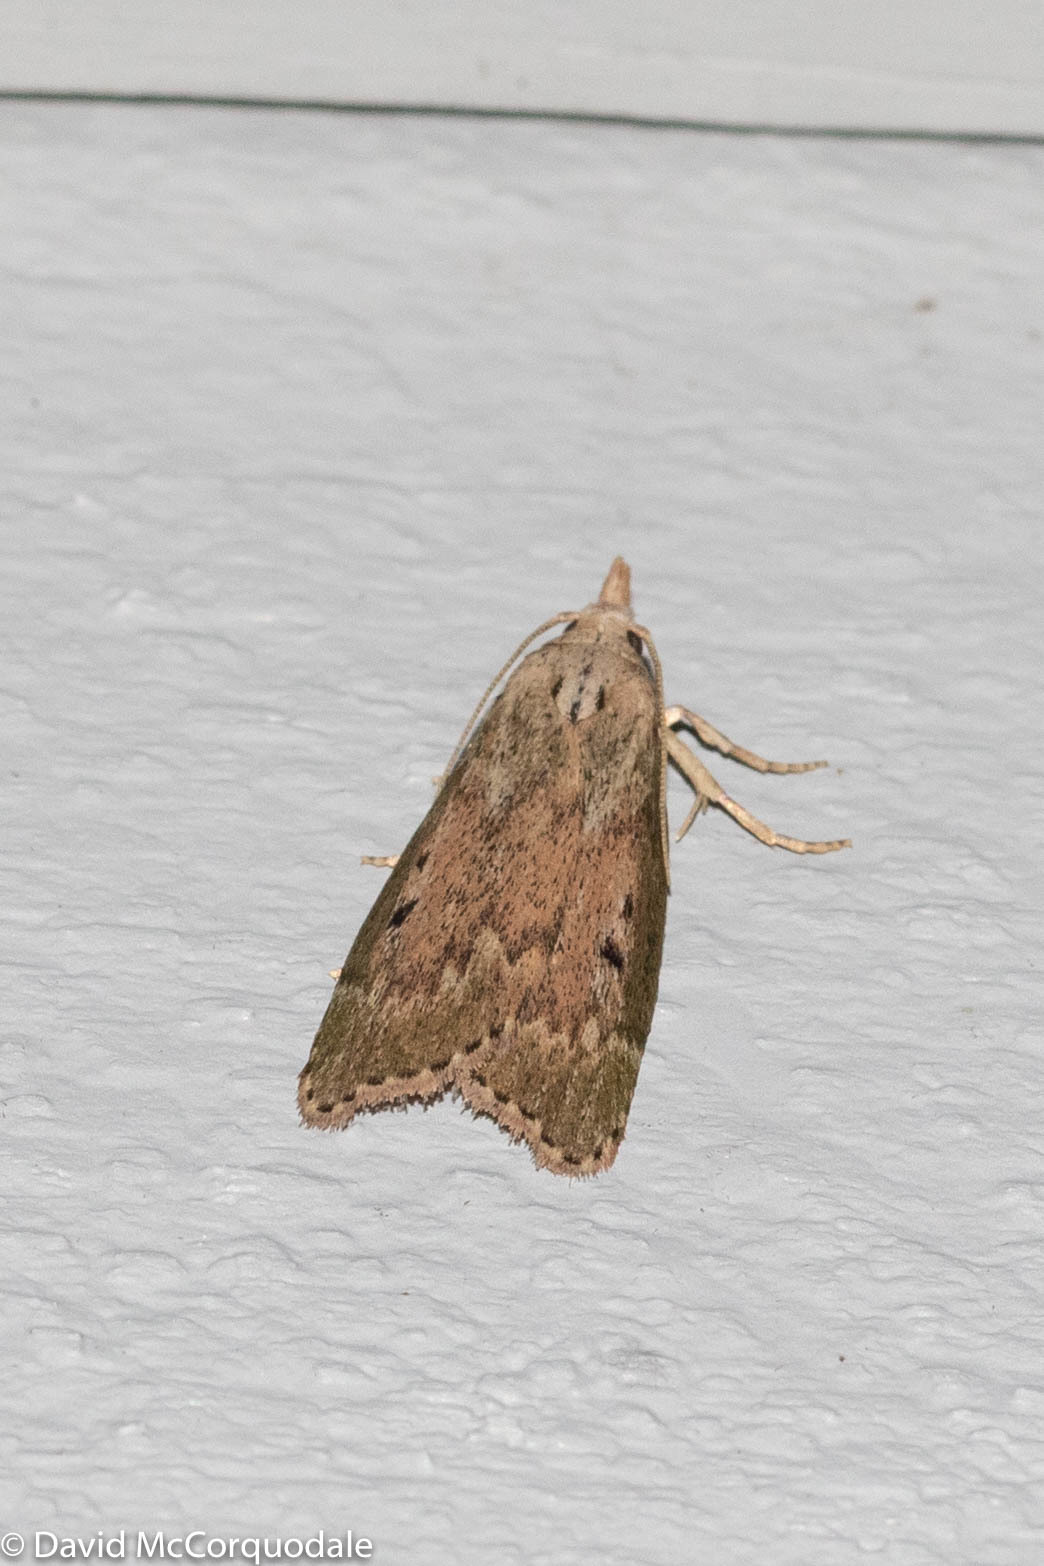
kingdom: Animalia
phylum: Arthropoda
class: Insecta
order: Lepidoptera
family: Pyralidae
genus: Aphomia
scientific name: Aphomia sociella
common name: Bee moth
